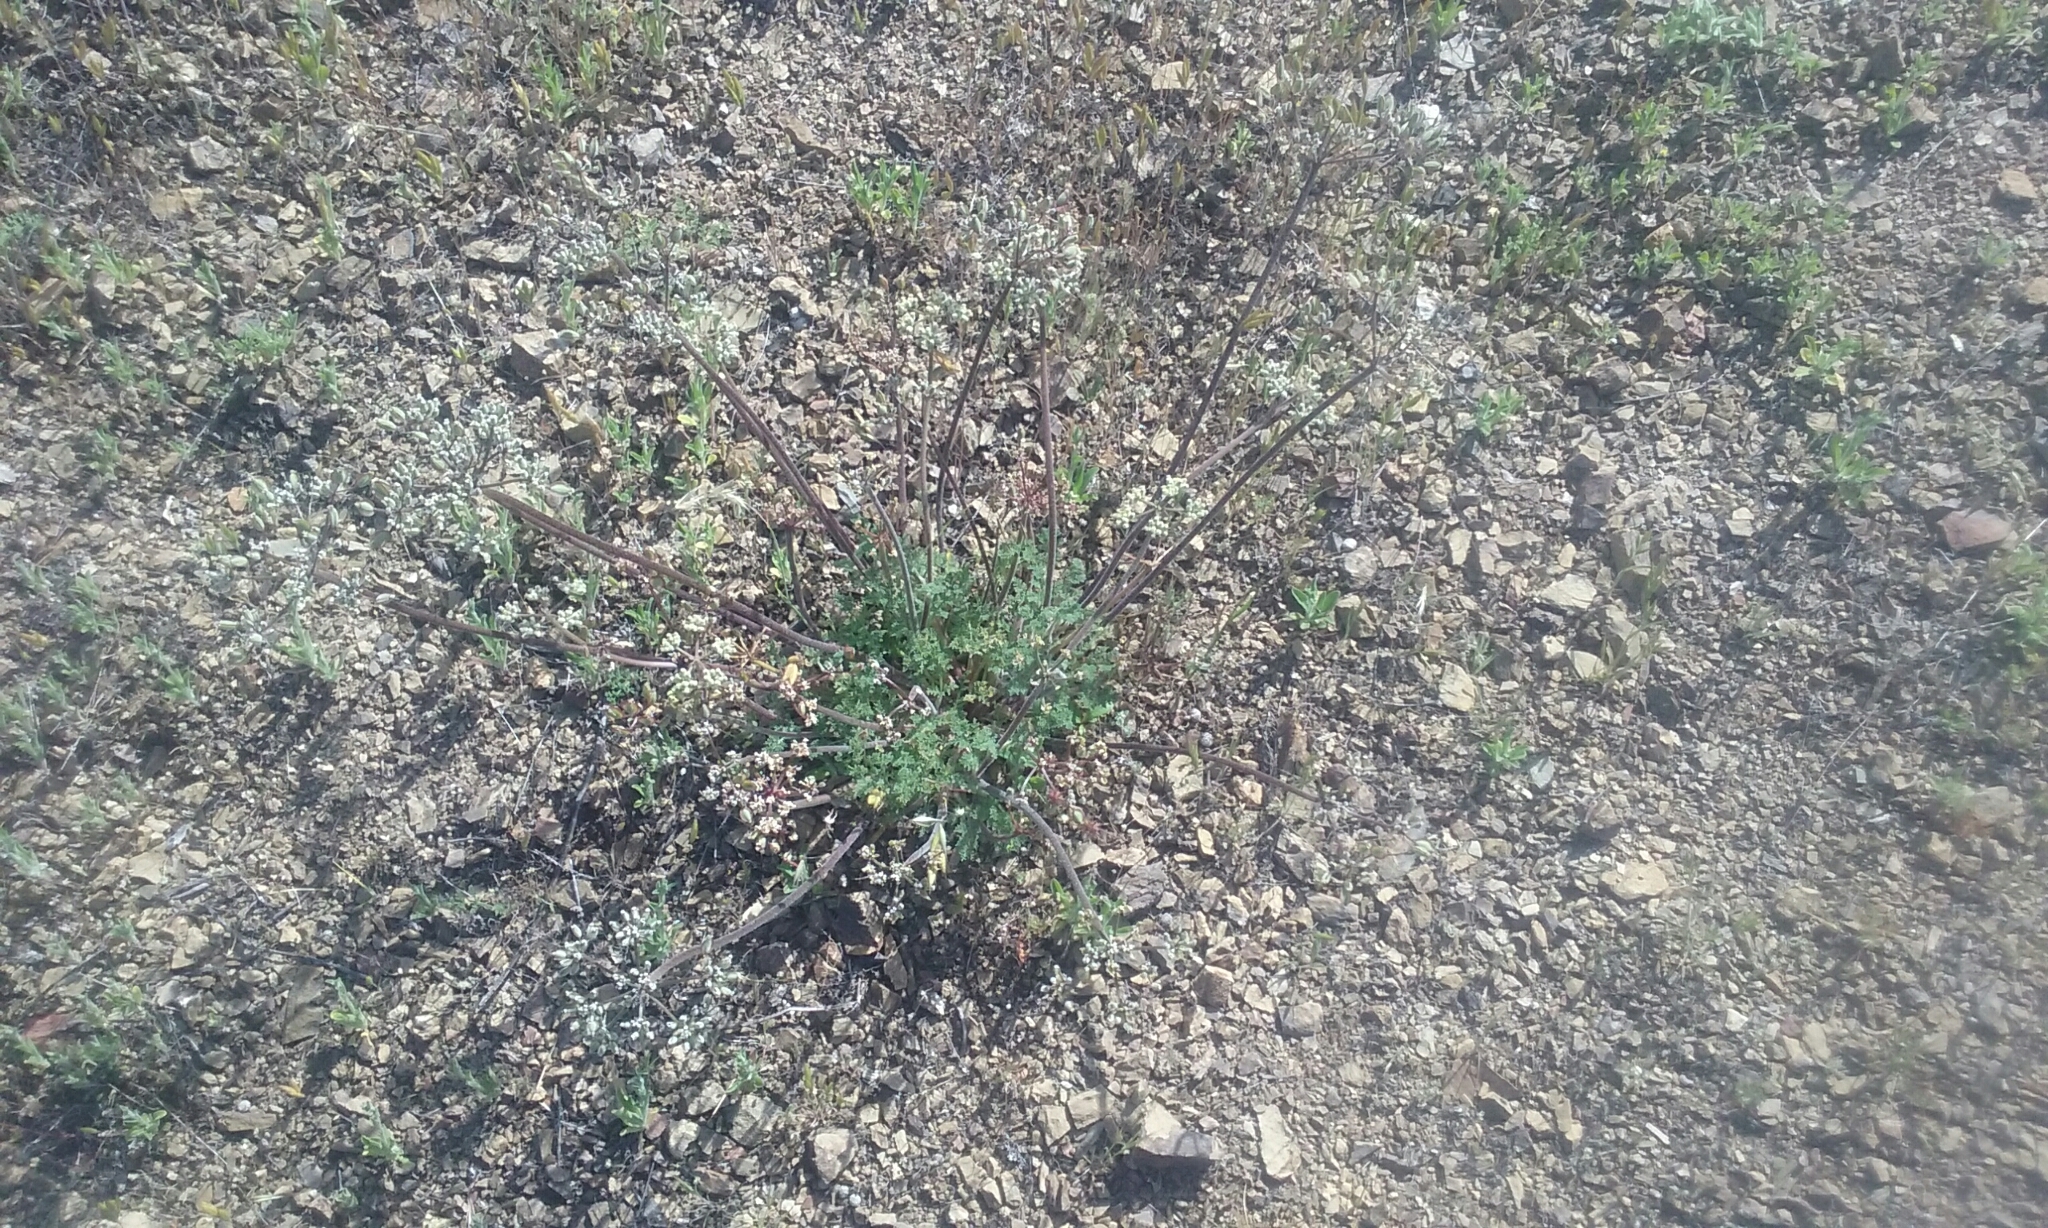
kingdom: Plantae
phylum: Tracheophyta
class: Magnoliopsida
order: Apiales
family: Apiaceae
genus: Lomatium
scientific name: Lomatium dasycarpum
